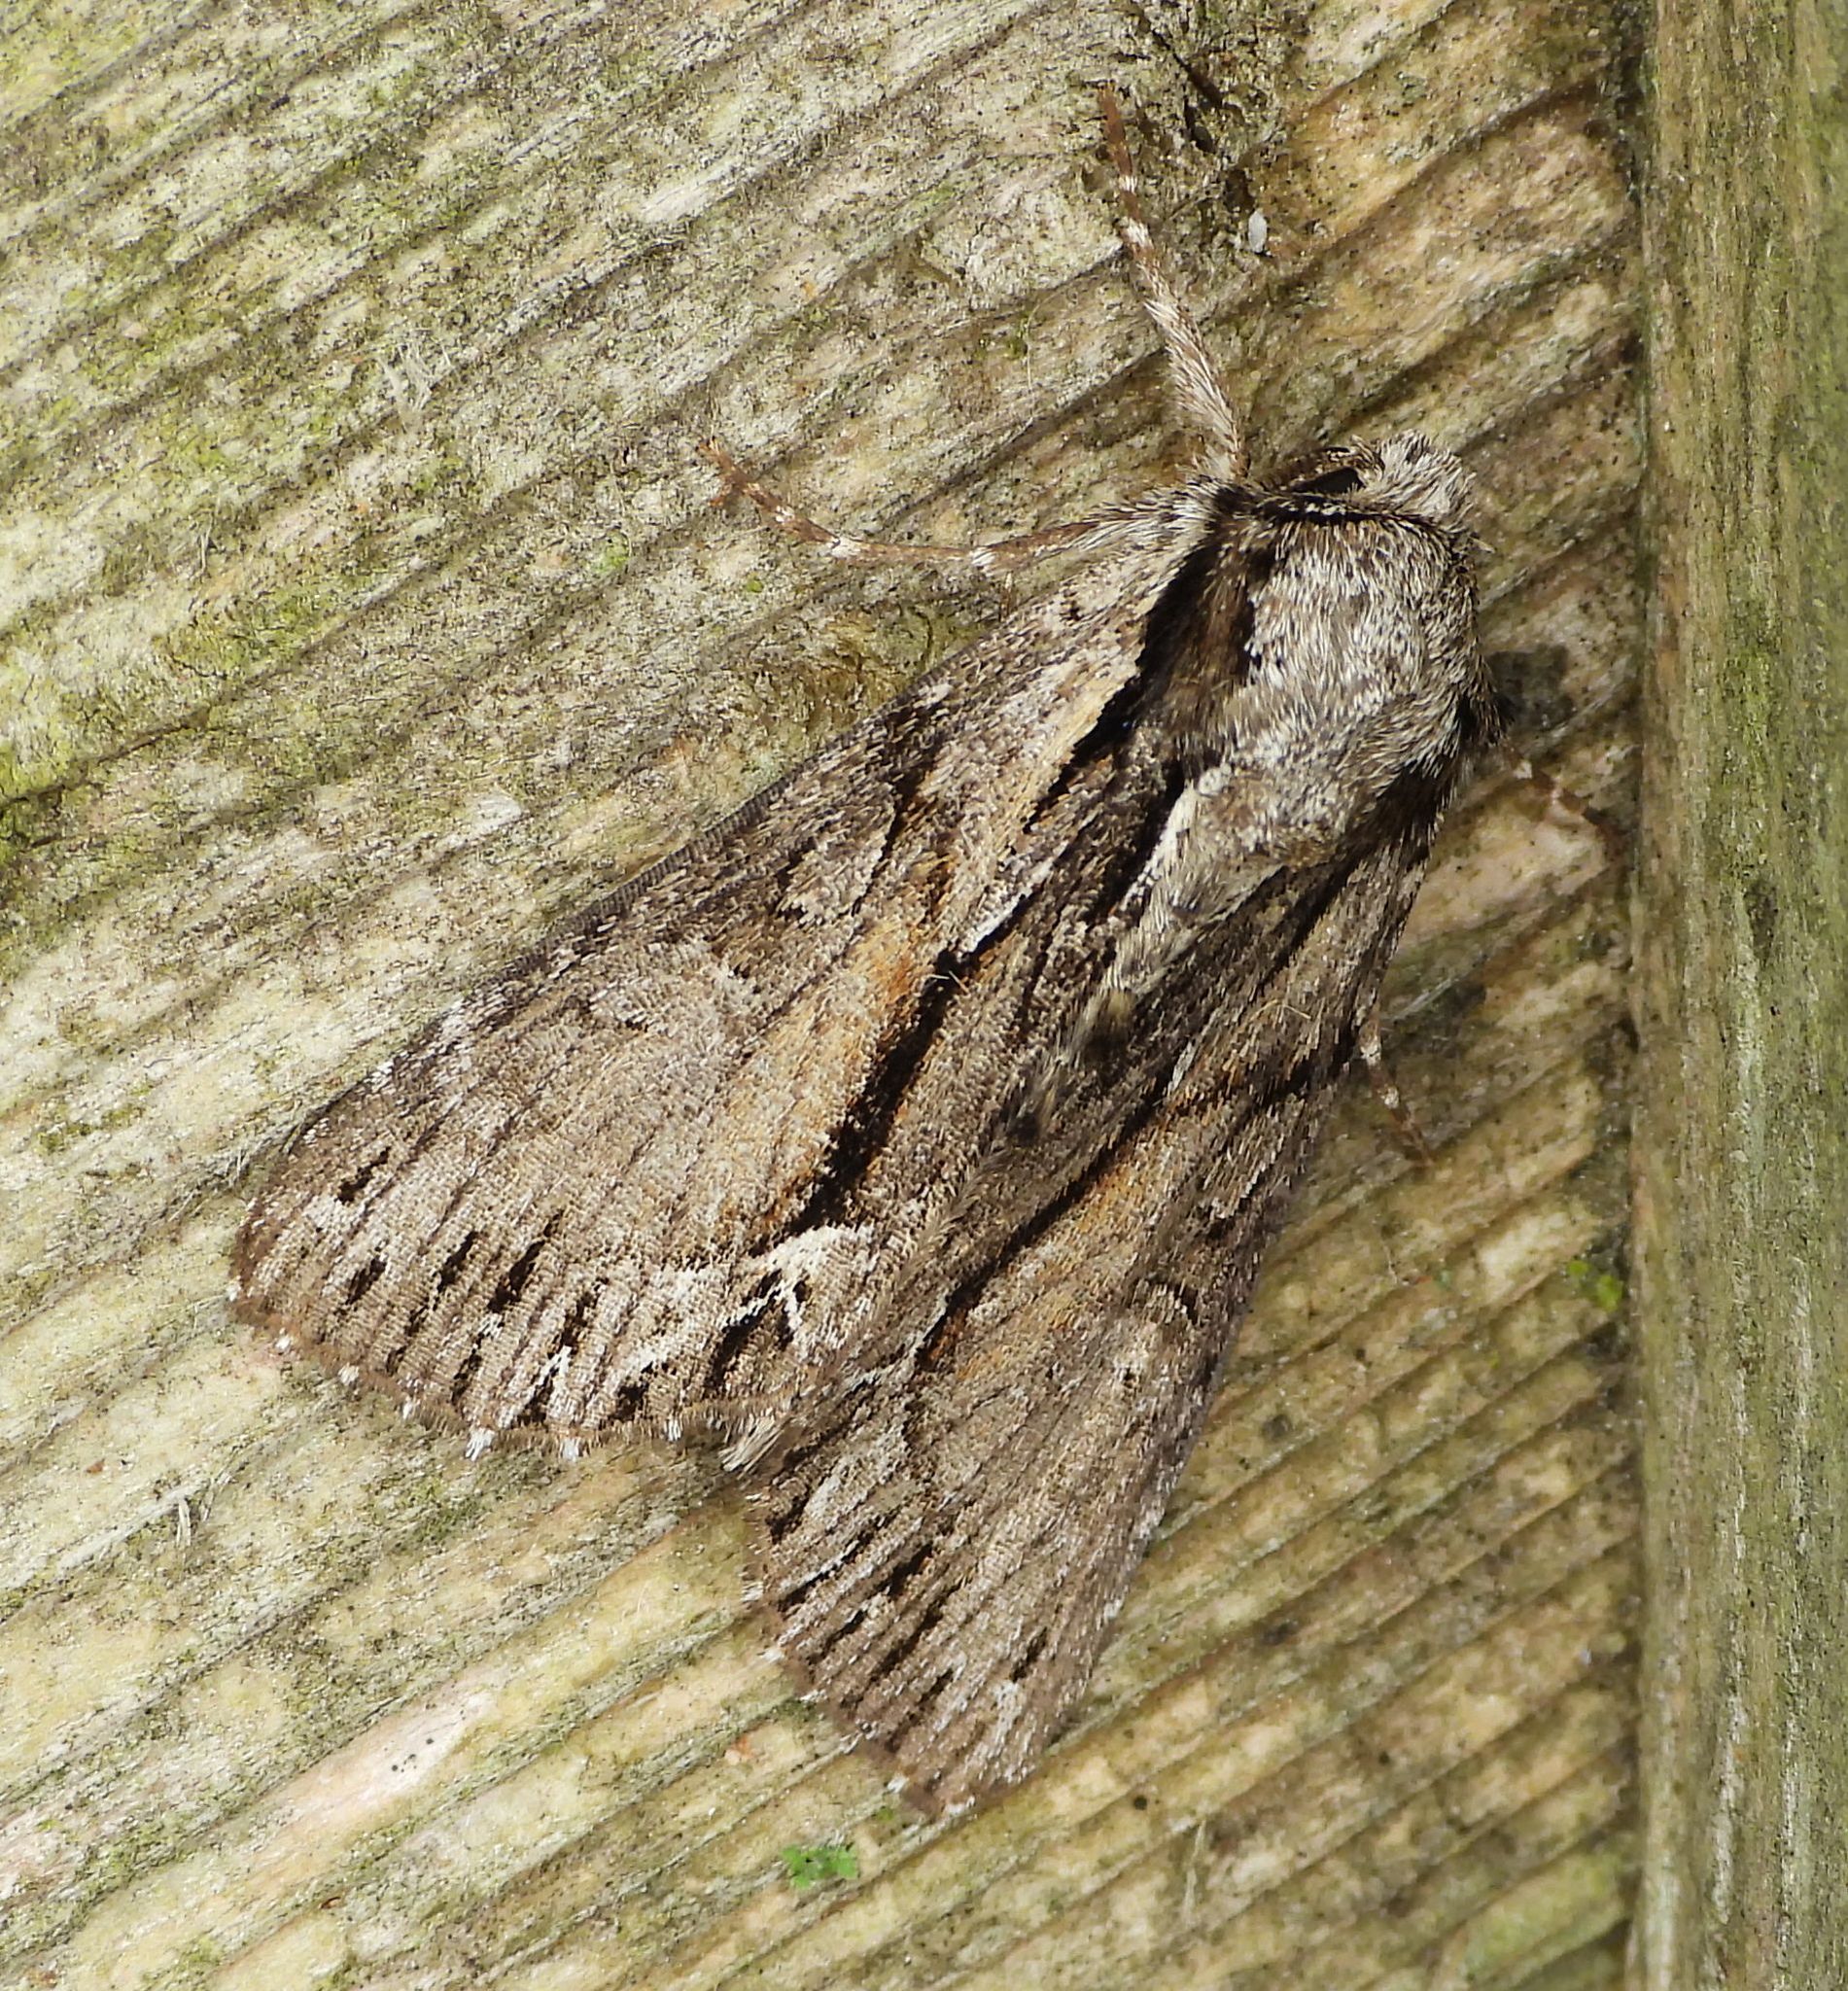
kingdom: Animalia
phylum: Arthropoda
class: Insecta
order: Lepidoptera
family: Noctuidae
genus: Hyppa
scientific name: Hyppa xylinoides
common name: Common hyppa moth
